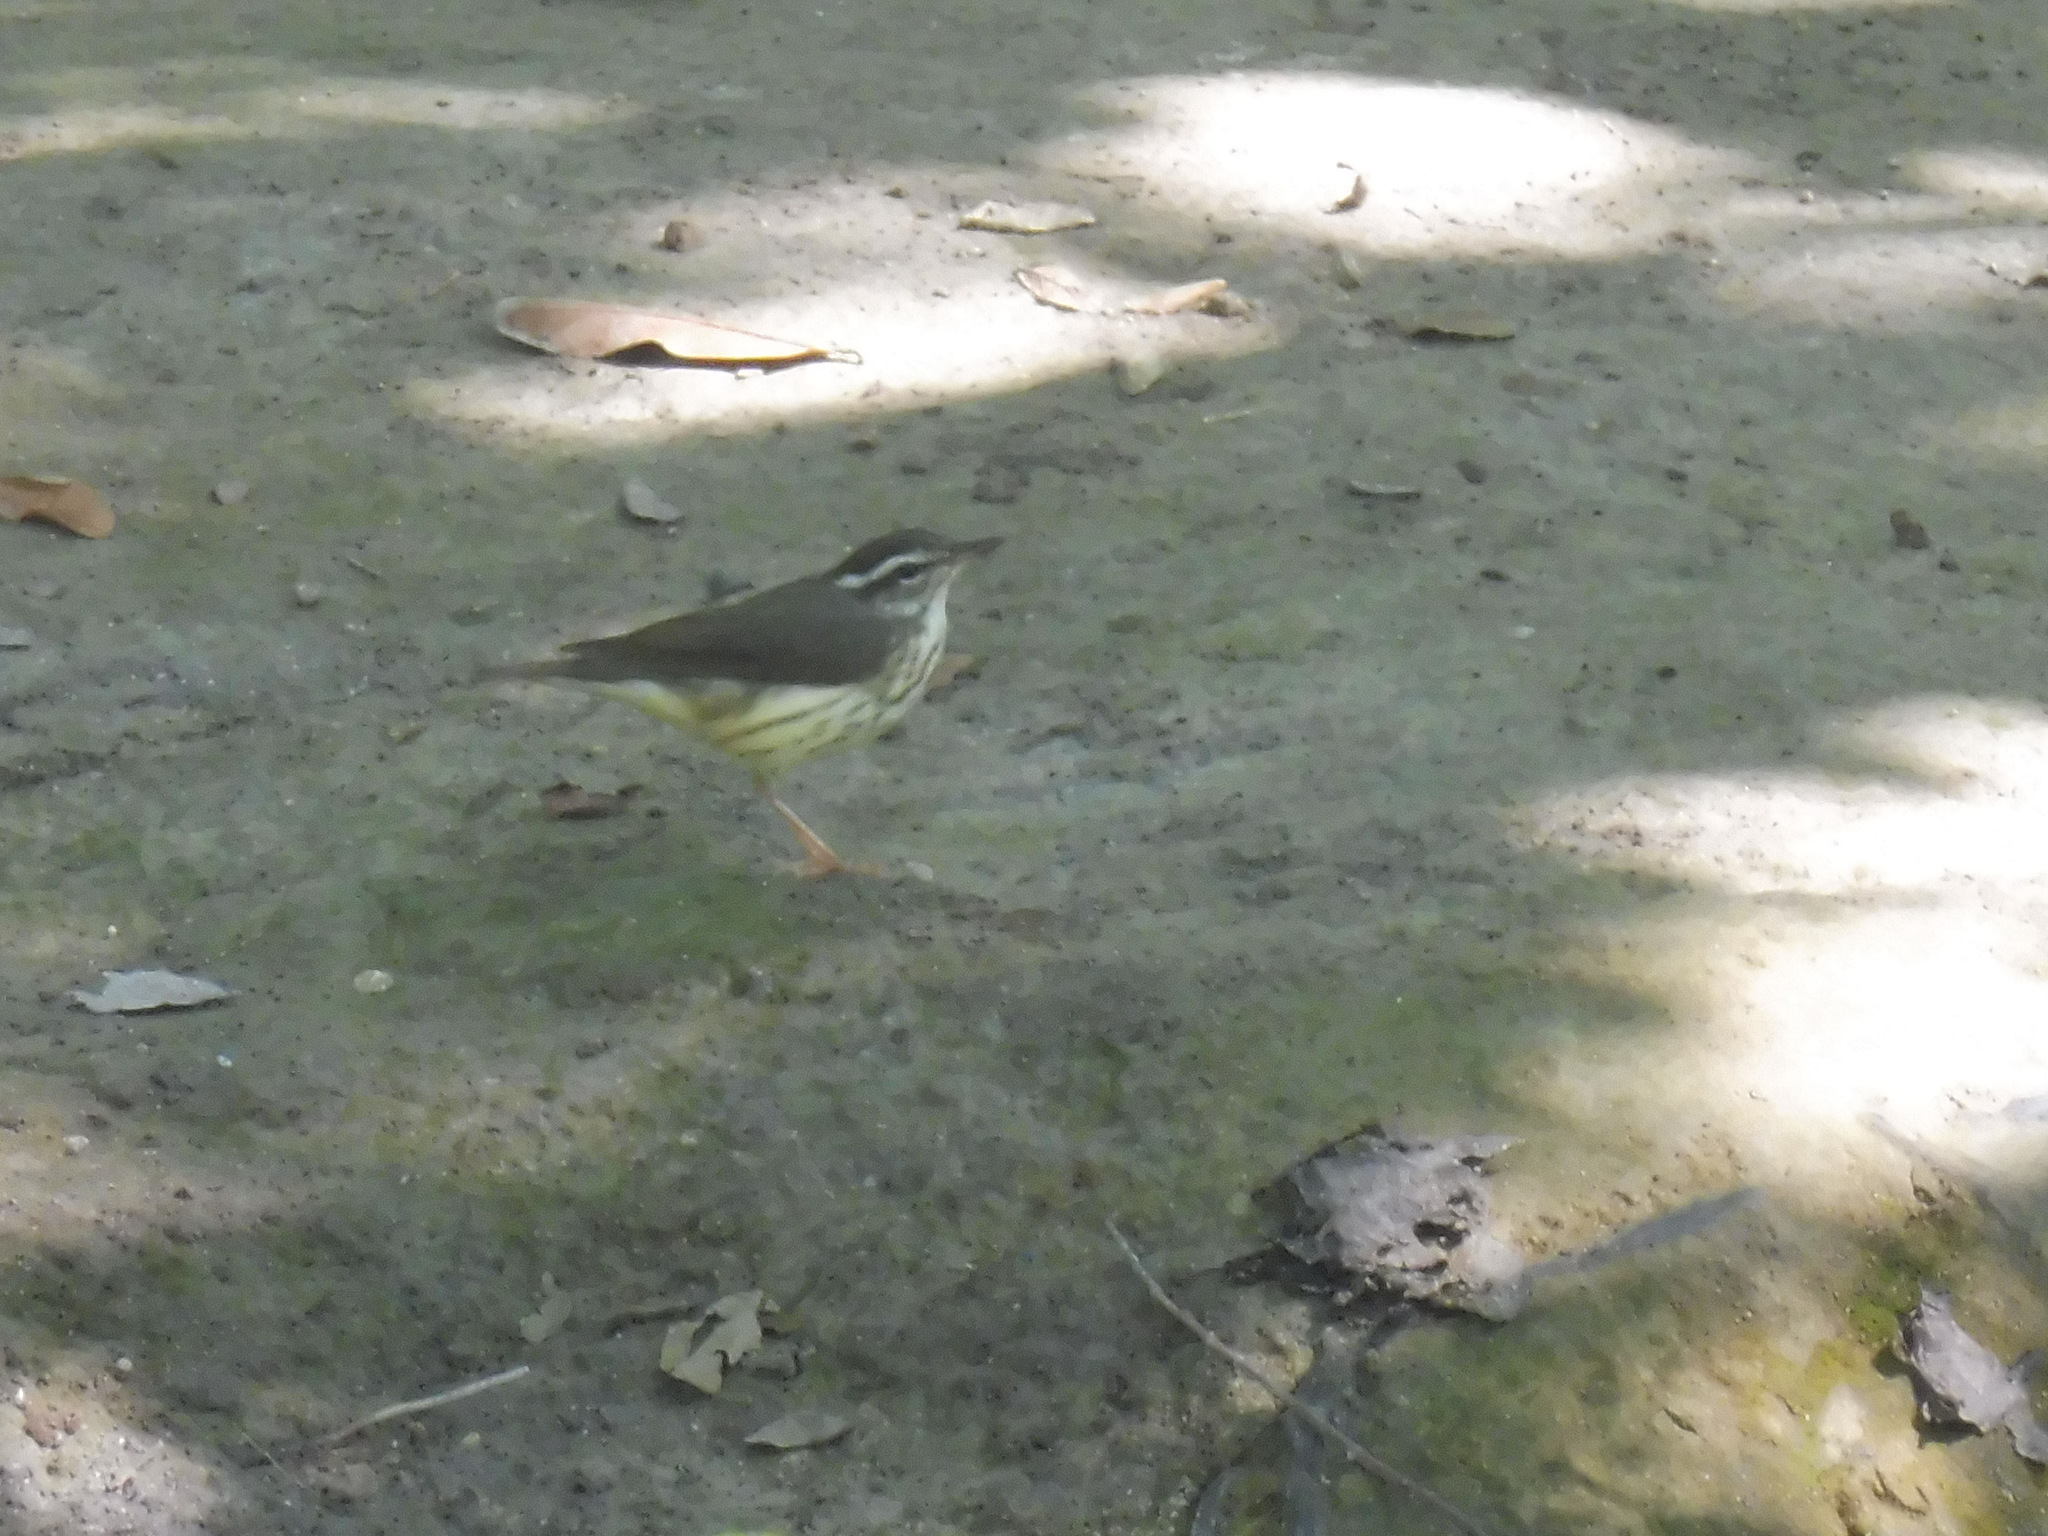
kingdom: Animalia
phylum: Chordata
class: Aves
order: Passeriformes
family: Parulidae
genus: Parkesia
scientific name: Parkesia motacilla
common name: Louisiana waterthrush
